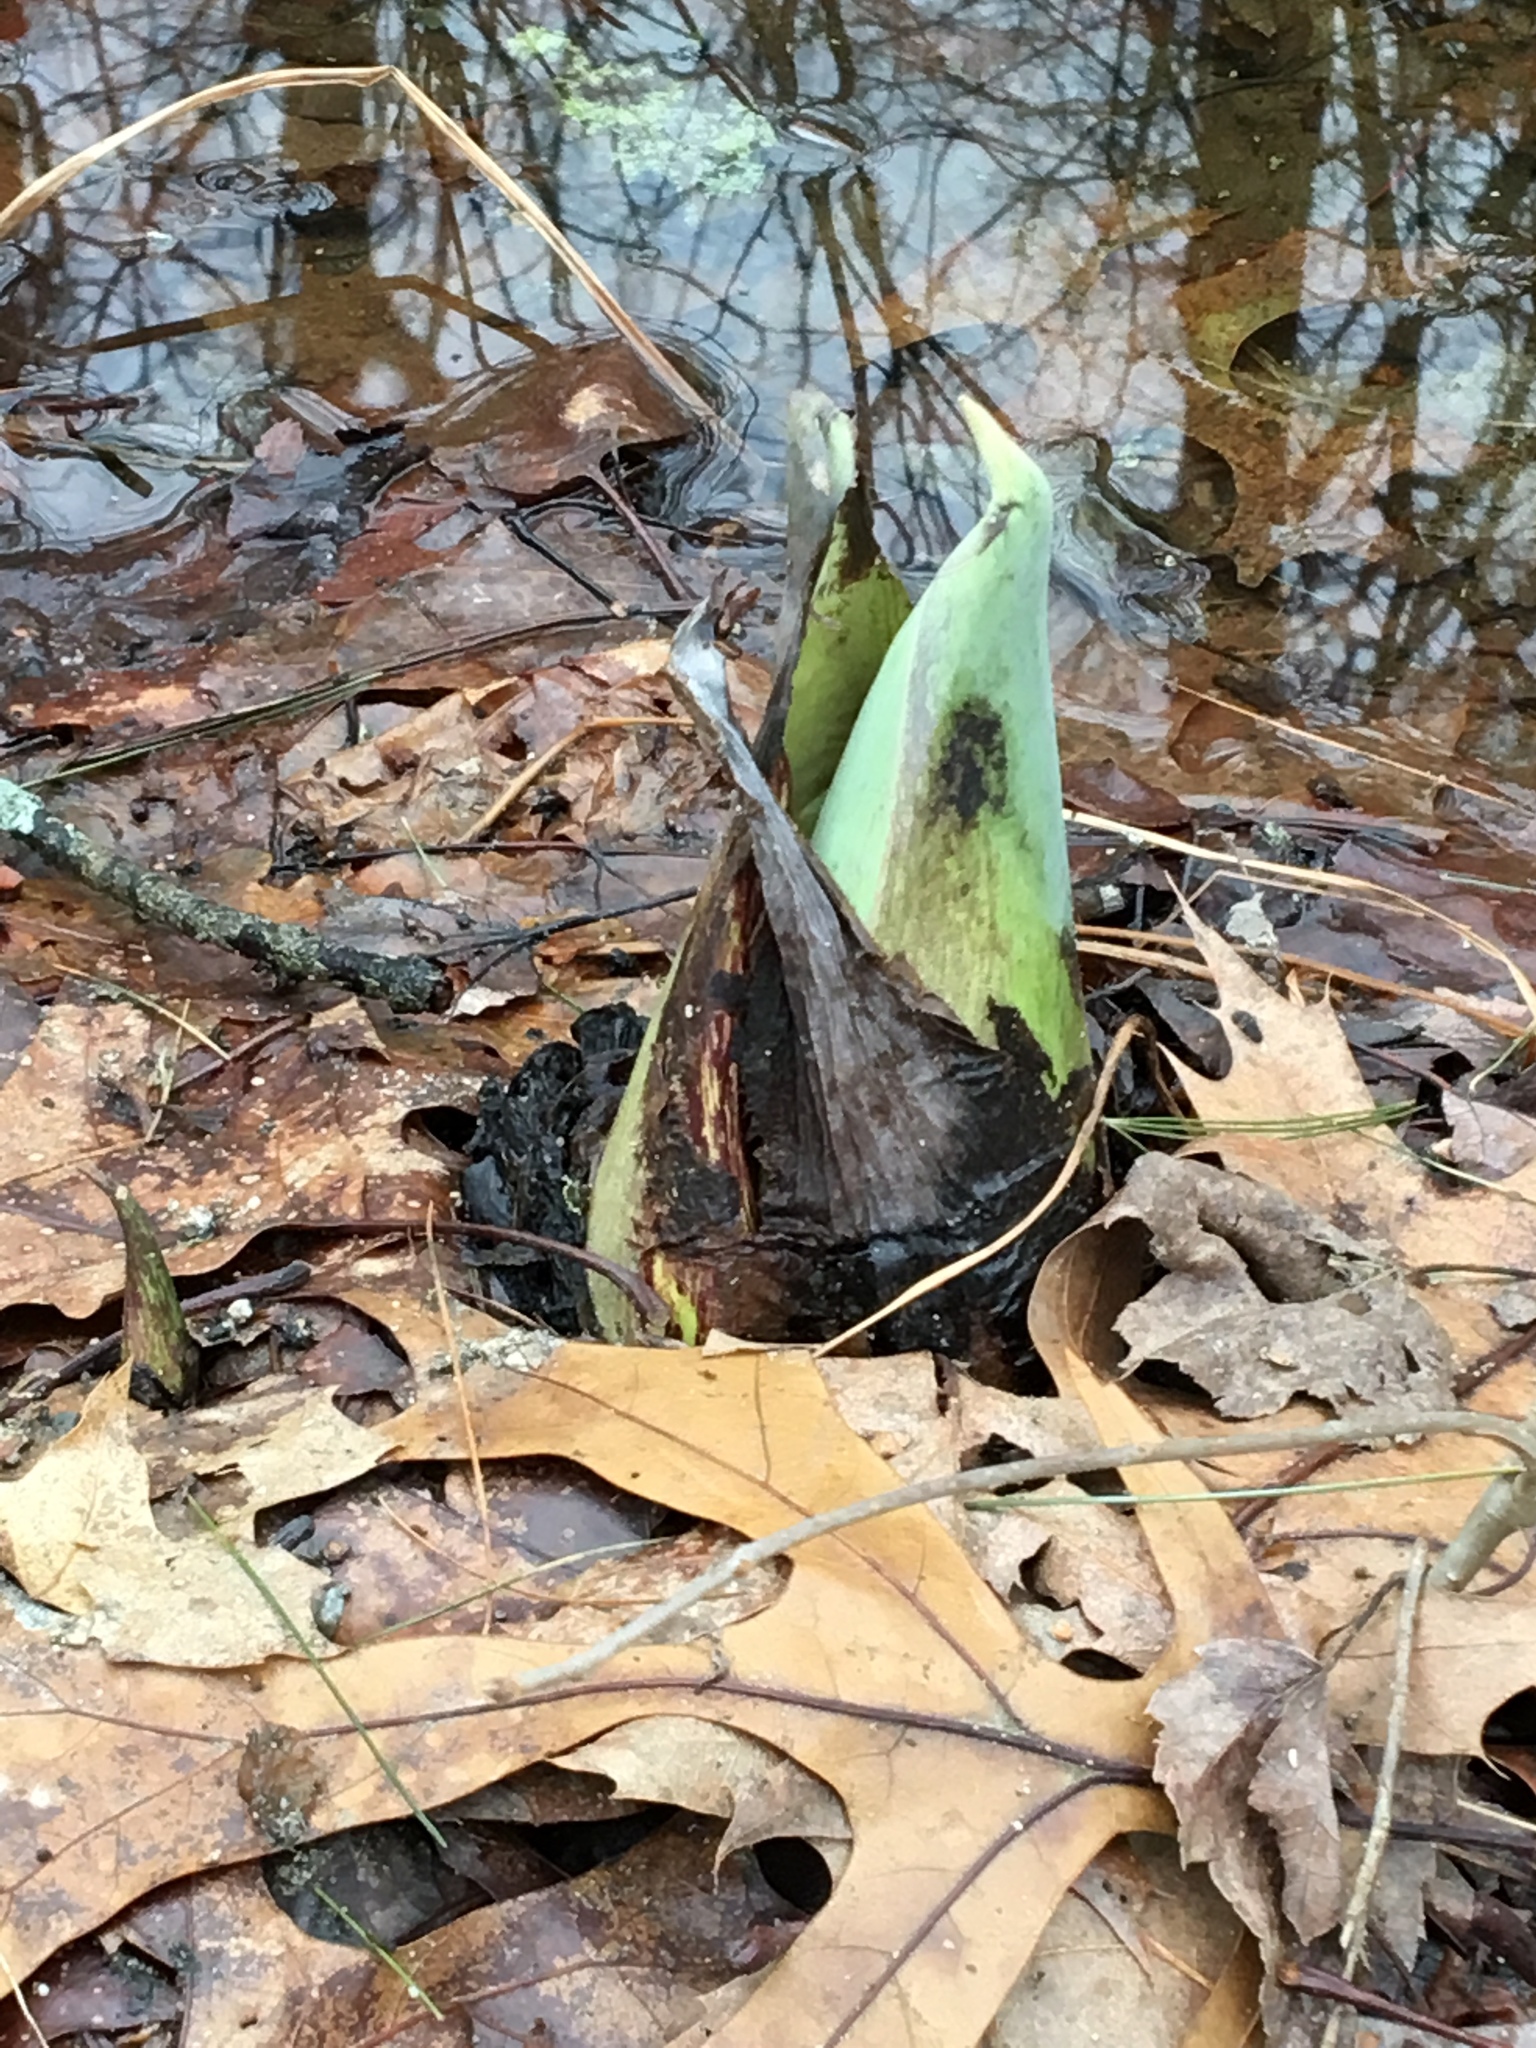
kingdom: Plantae
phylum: Tracheophyta
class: Liliopsida
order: Alismatales
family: Araceae
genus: Symplocarpus
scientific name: Symplocarpus foetidus
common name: Eastern skunk cabbage
